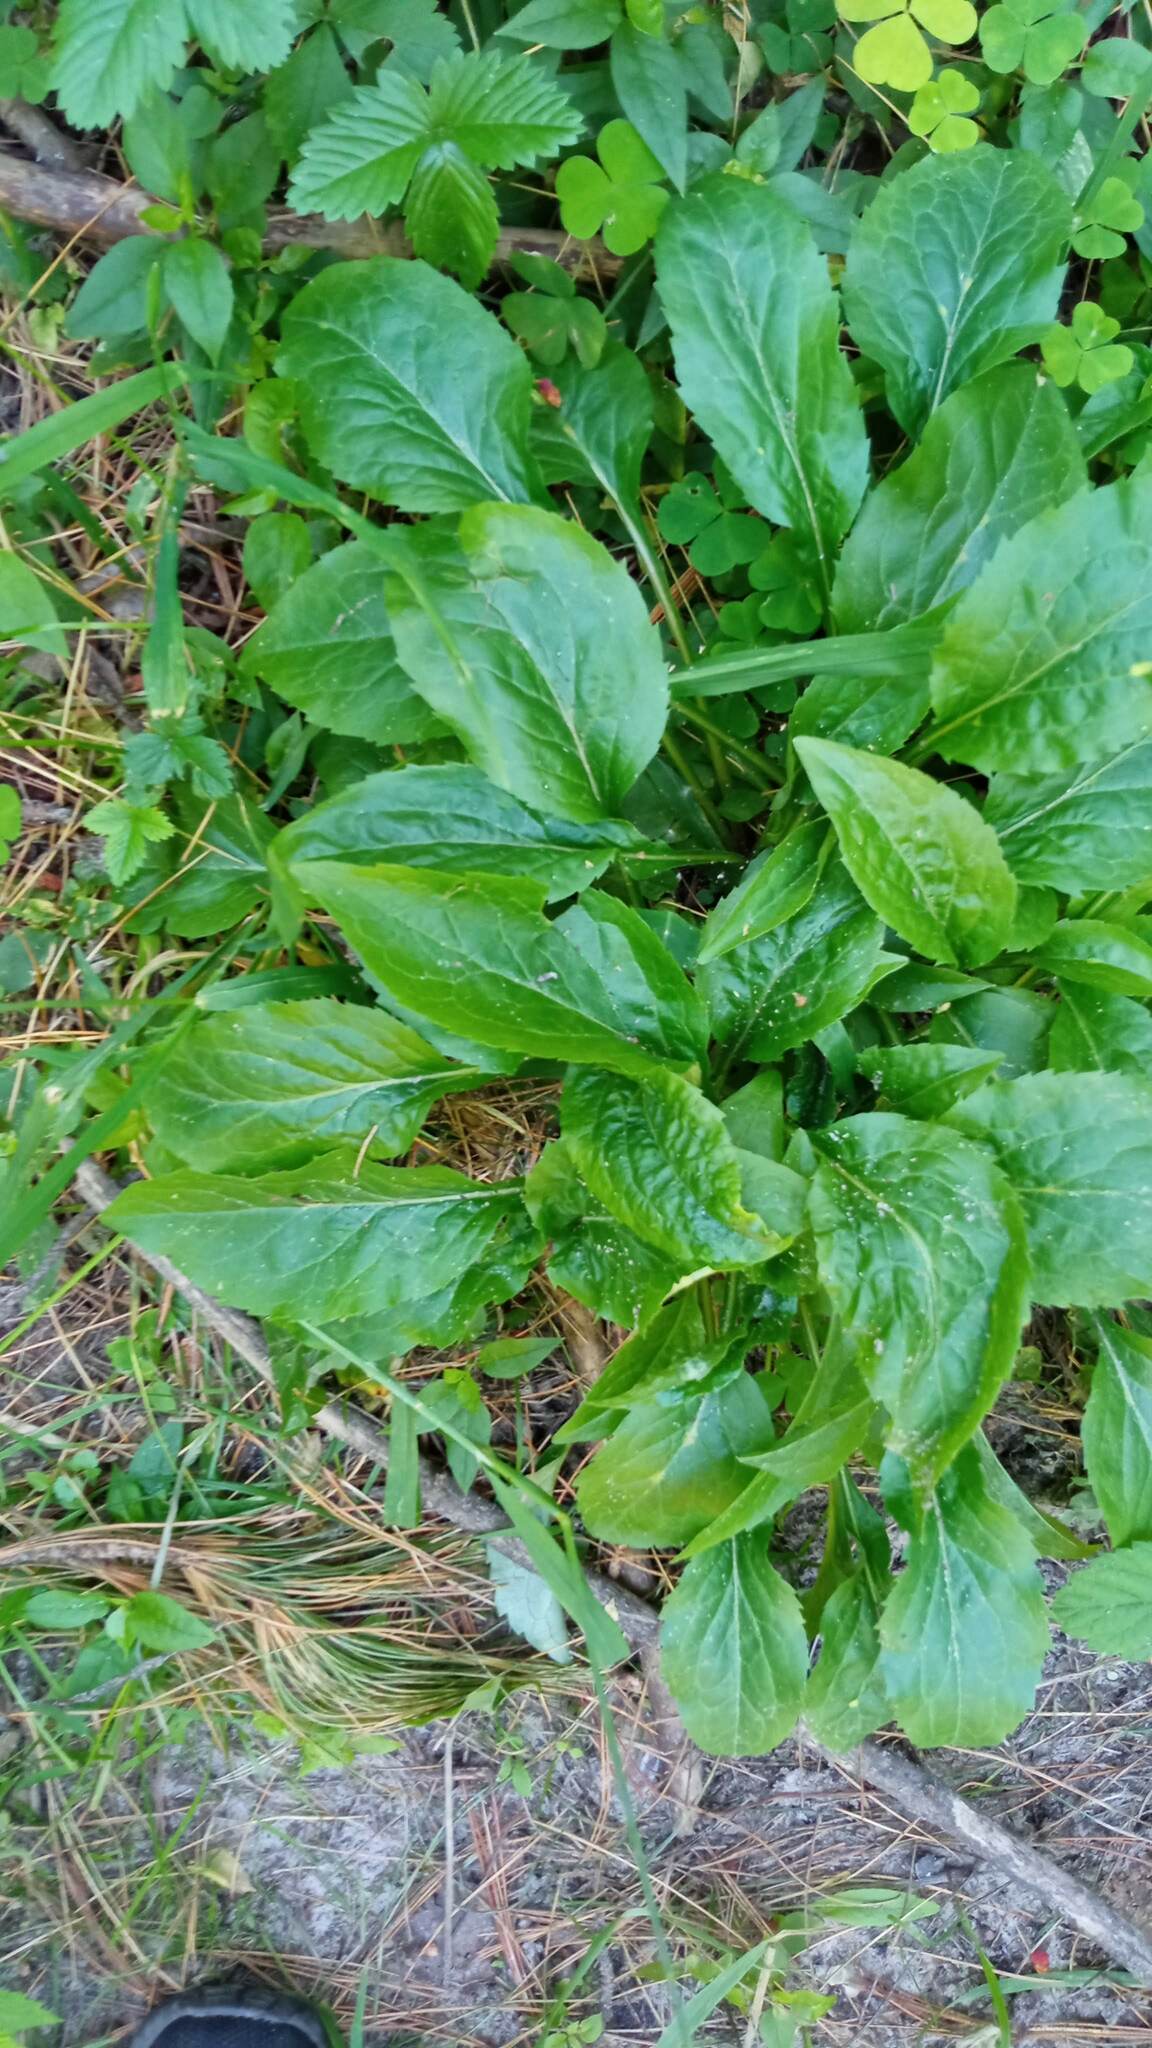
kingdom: Plantae
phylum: Tracheophyta
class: Magnoliopsida
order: Asterales
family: Asteraceae
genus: Solidago
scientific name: Solidago virgaurea
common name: Goldenrod
